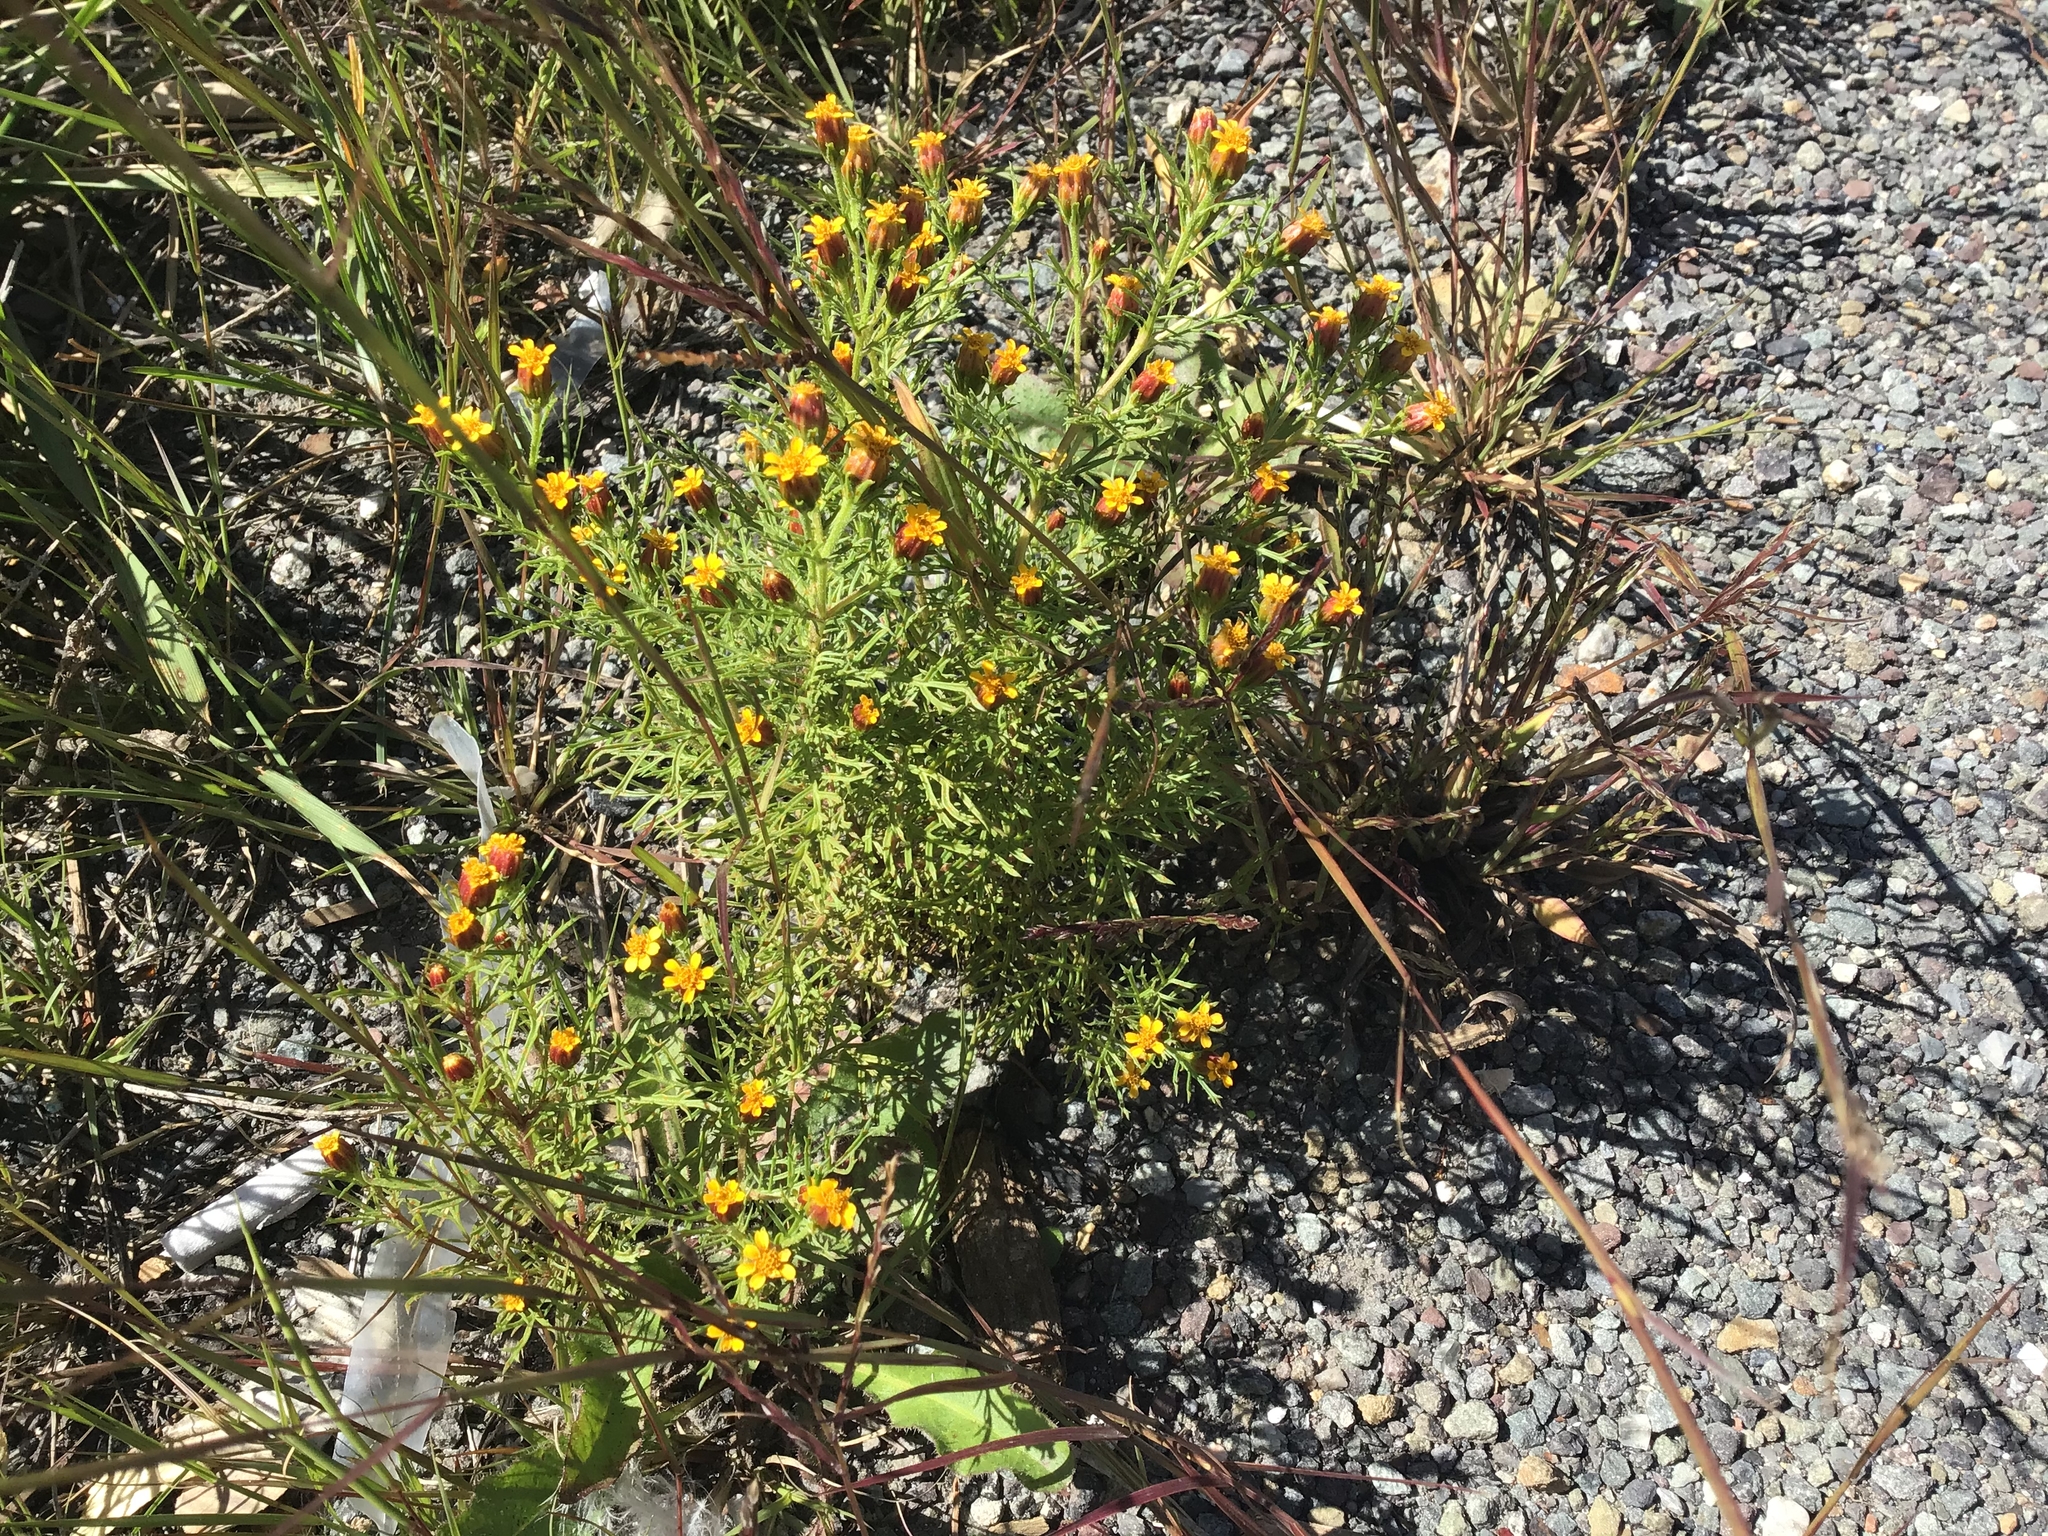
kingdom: Plantae
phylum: Tracheophyta
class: Magnoliopsida
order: Asterales
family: Asteraceae
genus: Dyssodia
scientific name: Dyssodia papposa
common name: Dogweed
